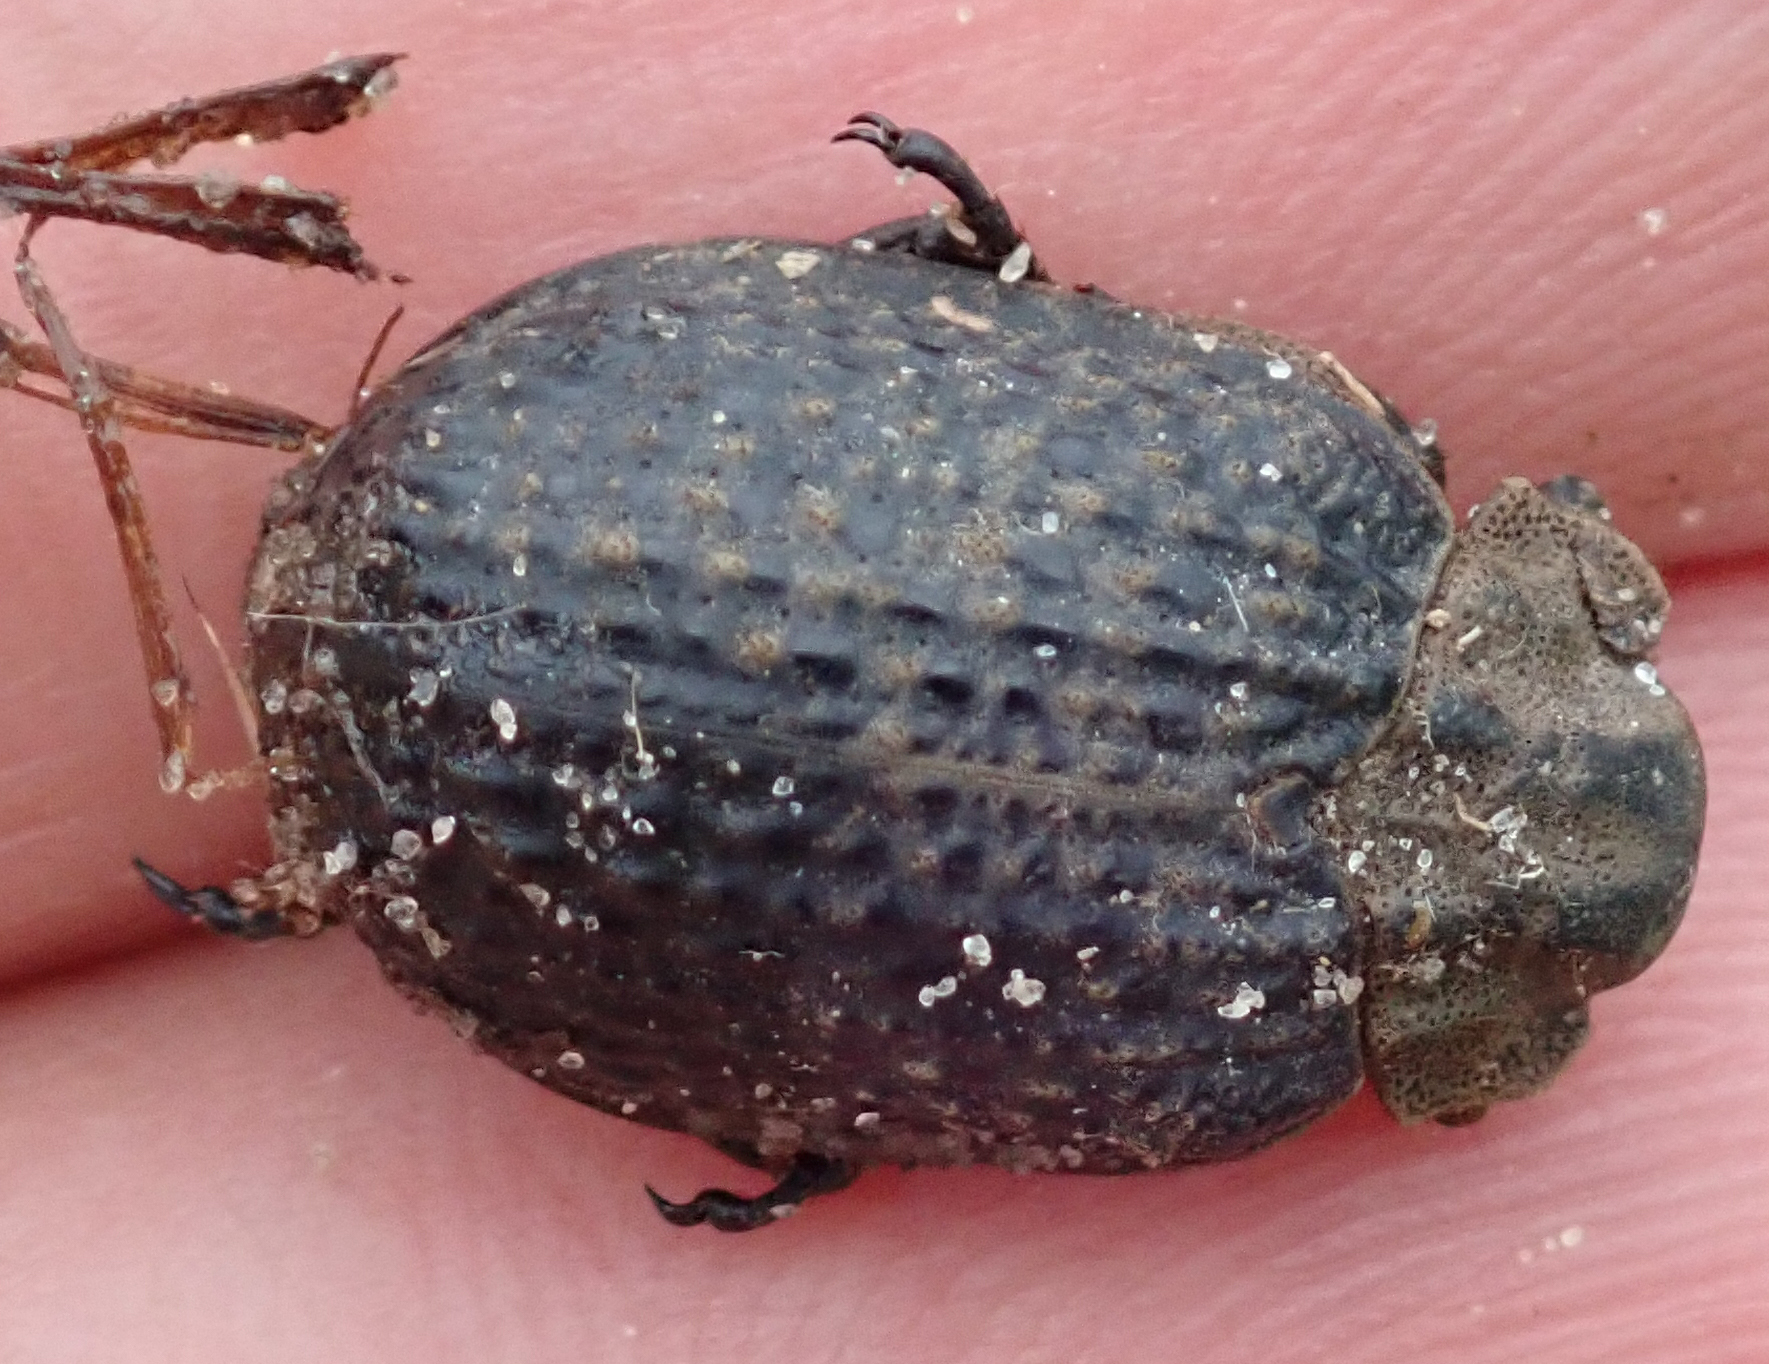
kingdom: Animalia
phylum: Arthropoda
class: Insecta
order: Coleoptera
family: Trogidae
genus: Omorgus
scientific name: Omorgus squalidus
